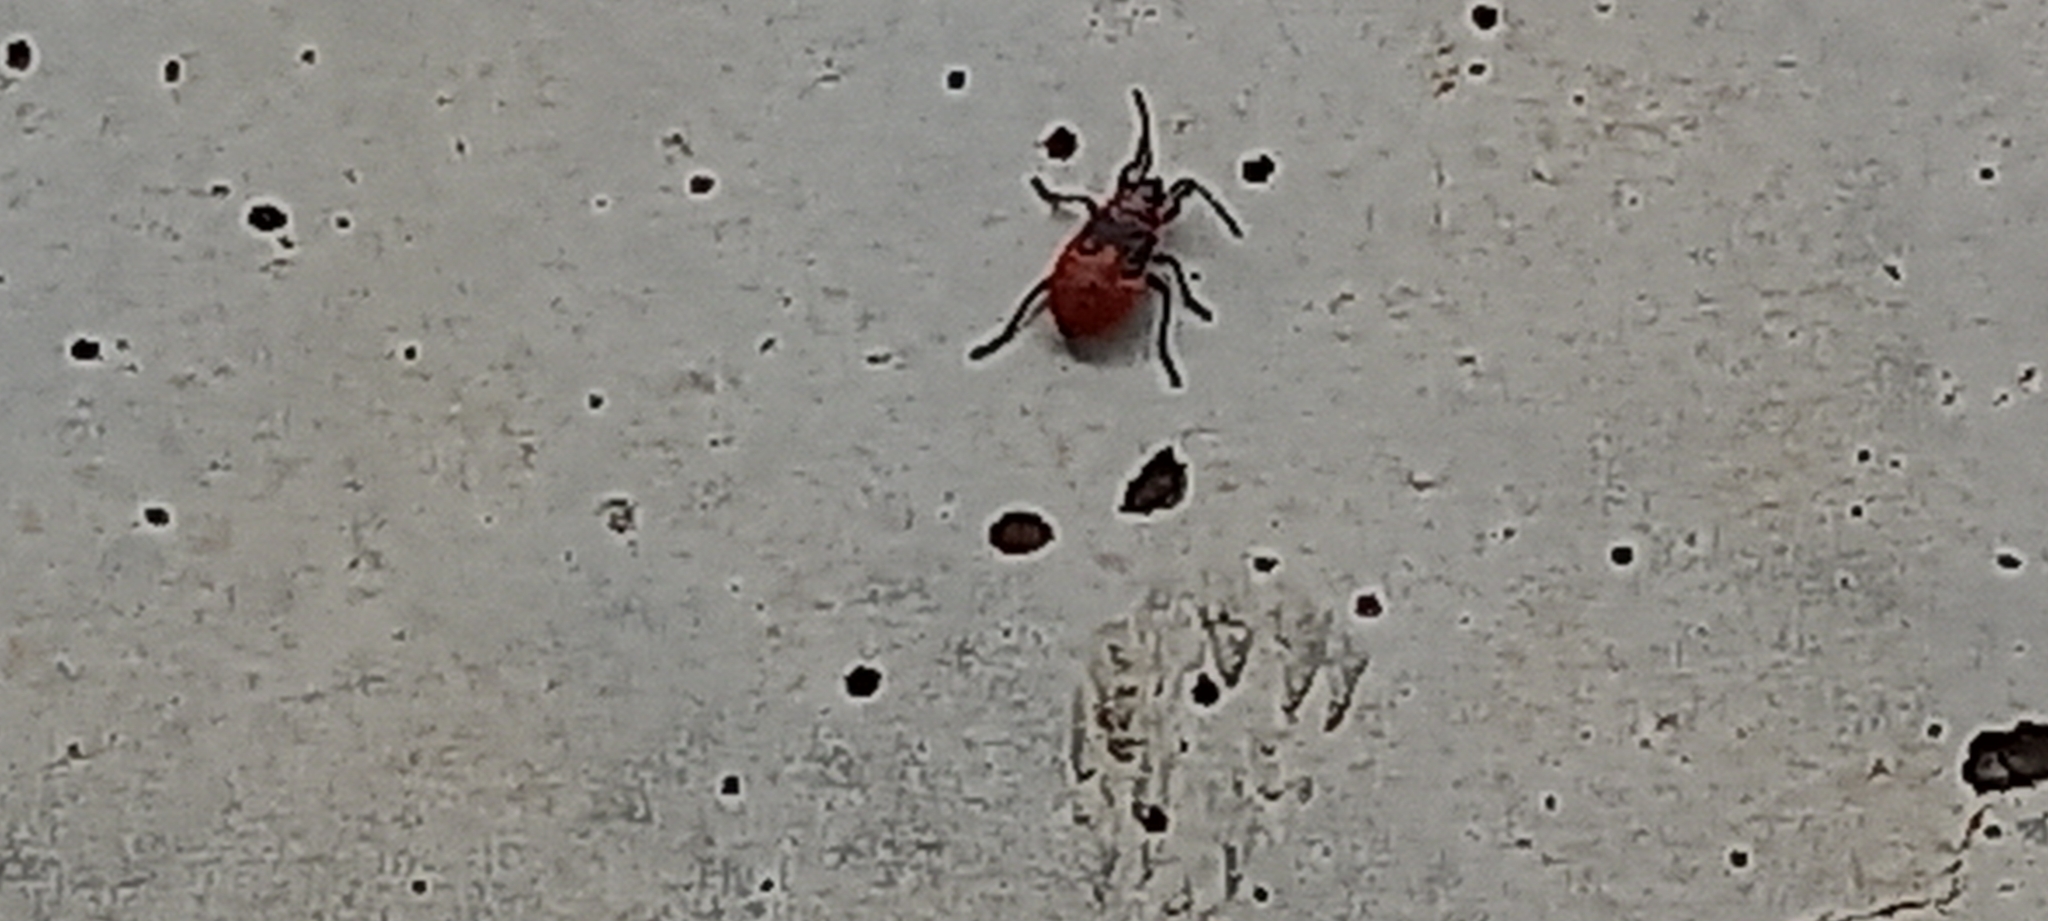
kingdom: Animalia
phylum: Arthropoda
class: Insecta
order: Hemiptera
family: Pyrrhocoridae
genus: Pyrrhocoris
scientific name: Pyrrhocoris apterus
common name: Firebug
